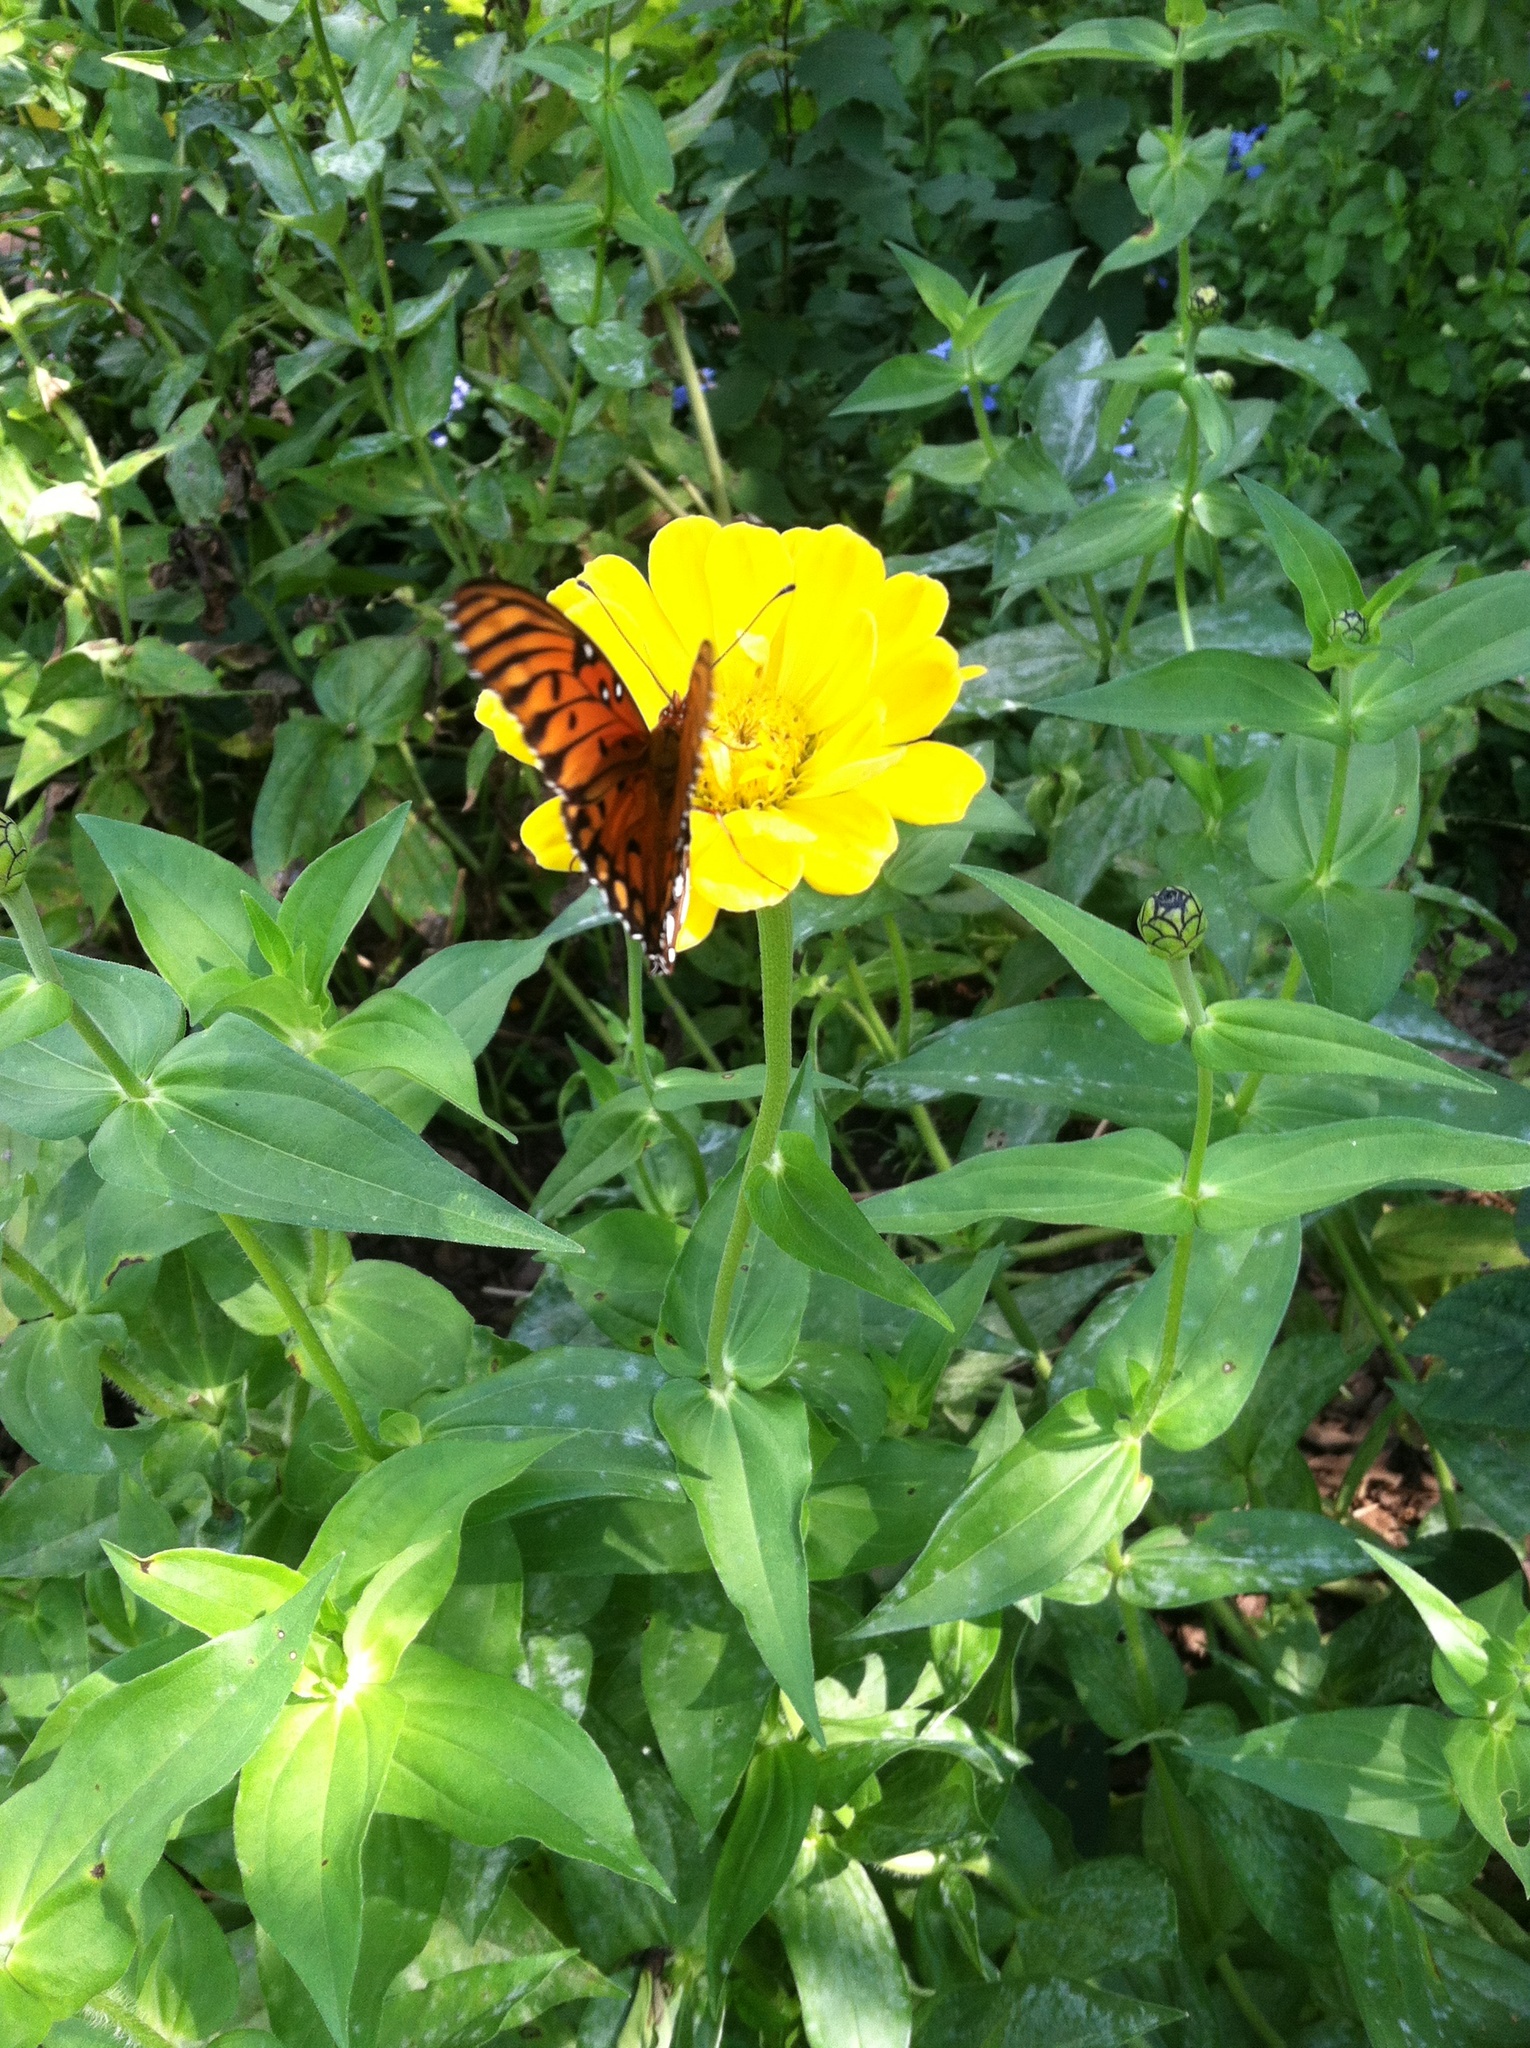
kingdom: Animalia
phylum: Arthropoda
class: Insecta
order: Lepidoptera
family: Nymphalidae
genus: Dione
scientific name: Dione vanillae
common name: Gulf fritillary
